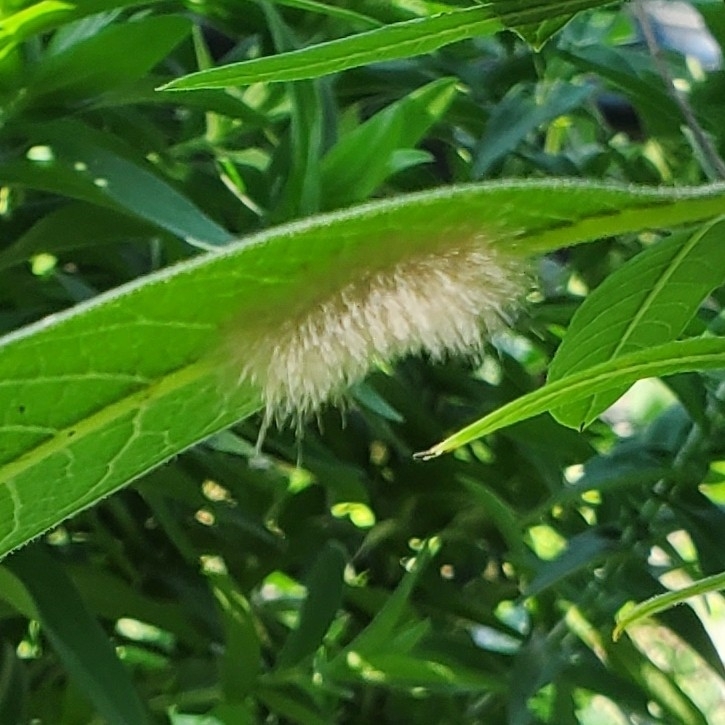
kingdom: Animalia
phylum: Arthropoda
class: Insecta
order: Lepidoptera
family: Erebidae
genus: Cycnia
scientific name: Cycnia tenera
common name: Delicate cycnia moth
